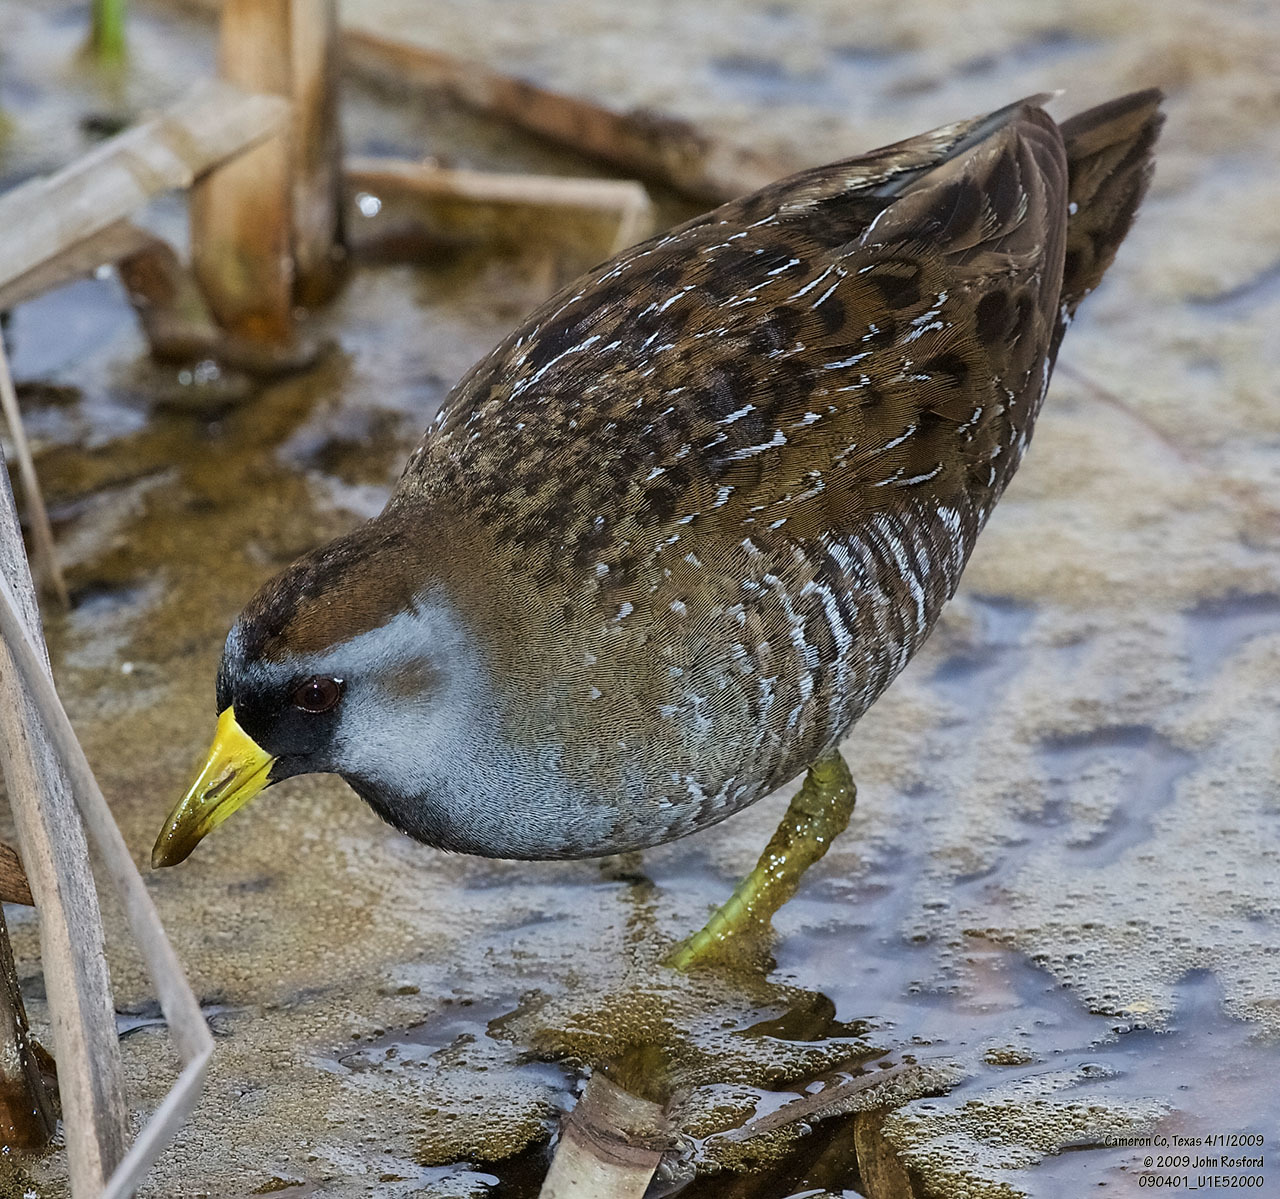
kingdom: Animalia
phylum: Chordata
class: Aves
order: Gruiformes
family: Rallidae
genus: Porzana
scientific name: Porzana carolina
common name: Sora
